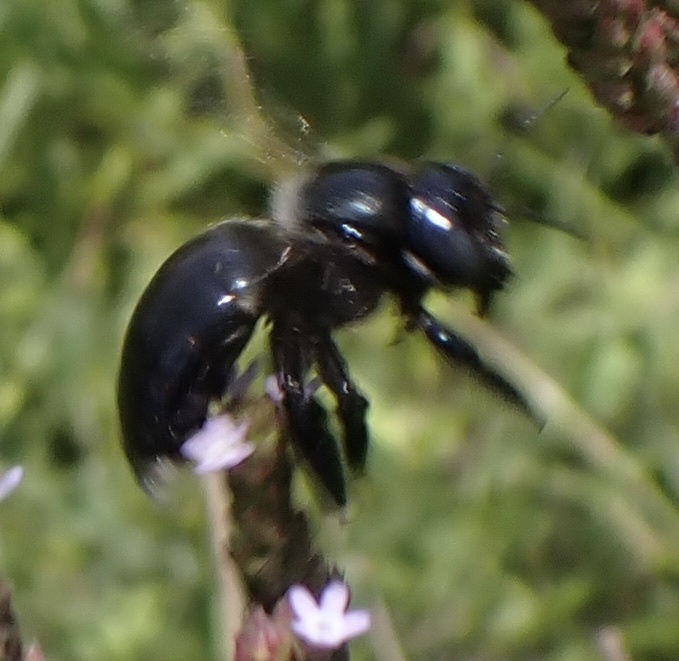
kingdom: Animalia
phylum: Arthropoda
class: Insecta
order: Hymenoptera
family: Apidae
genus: Xylocopa
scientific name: Xylocopa micans
